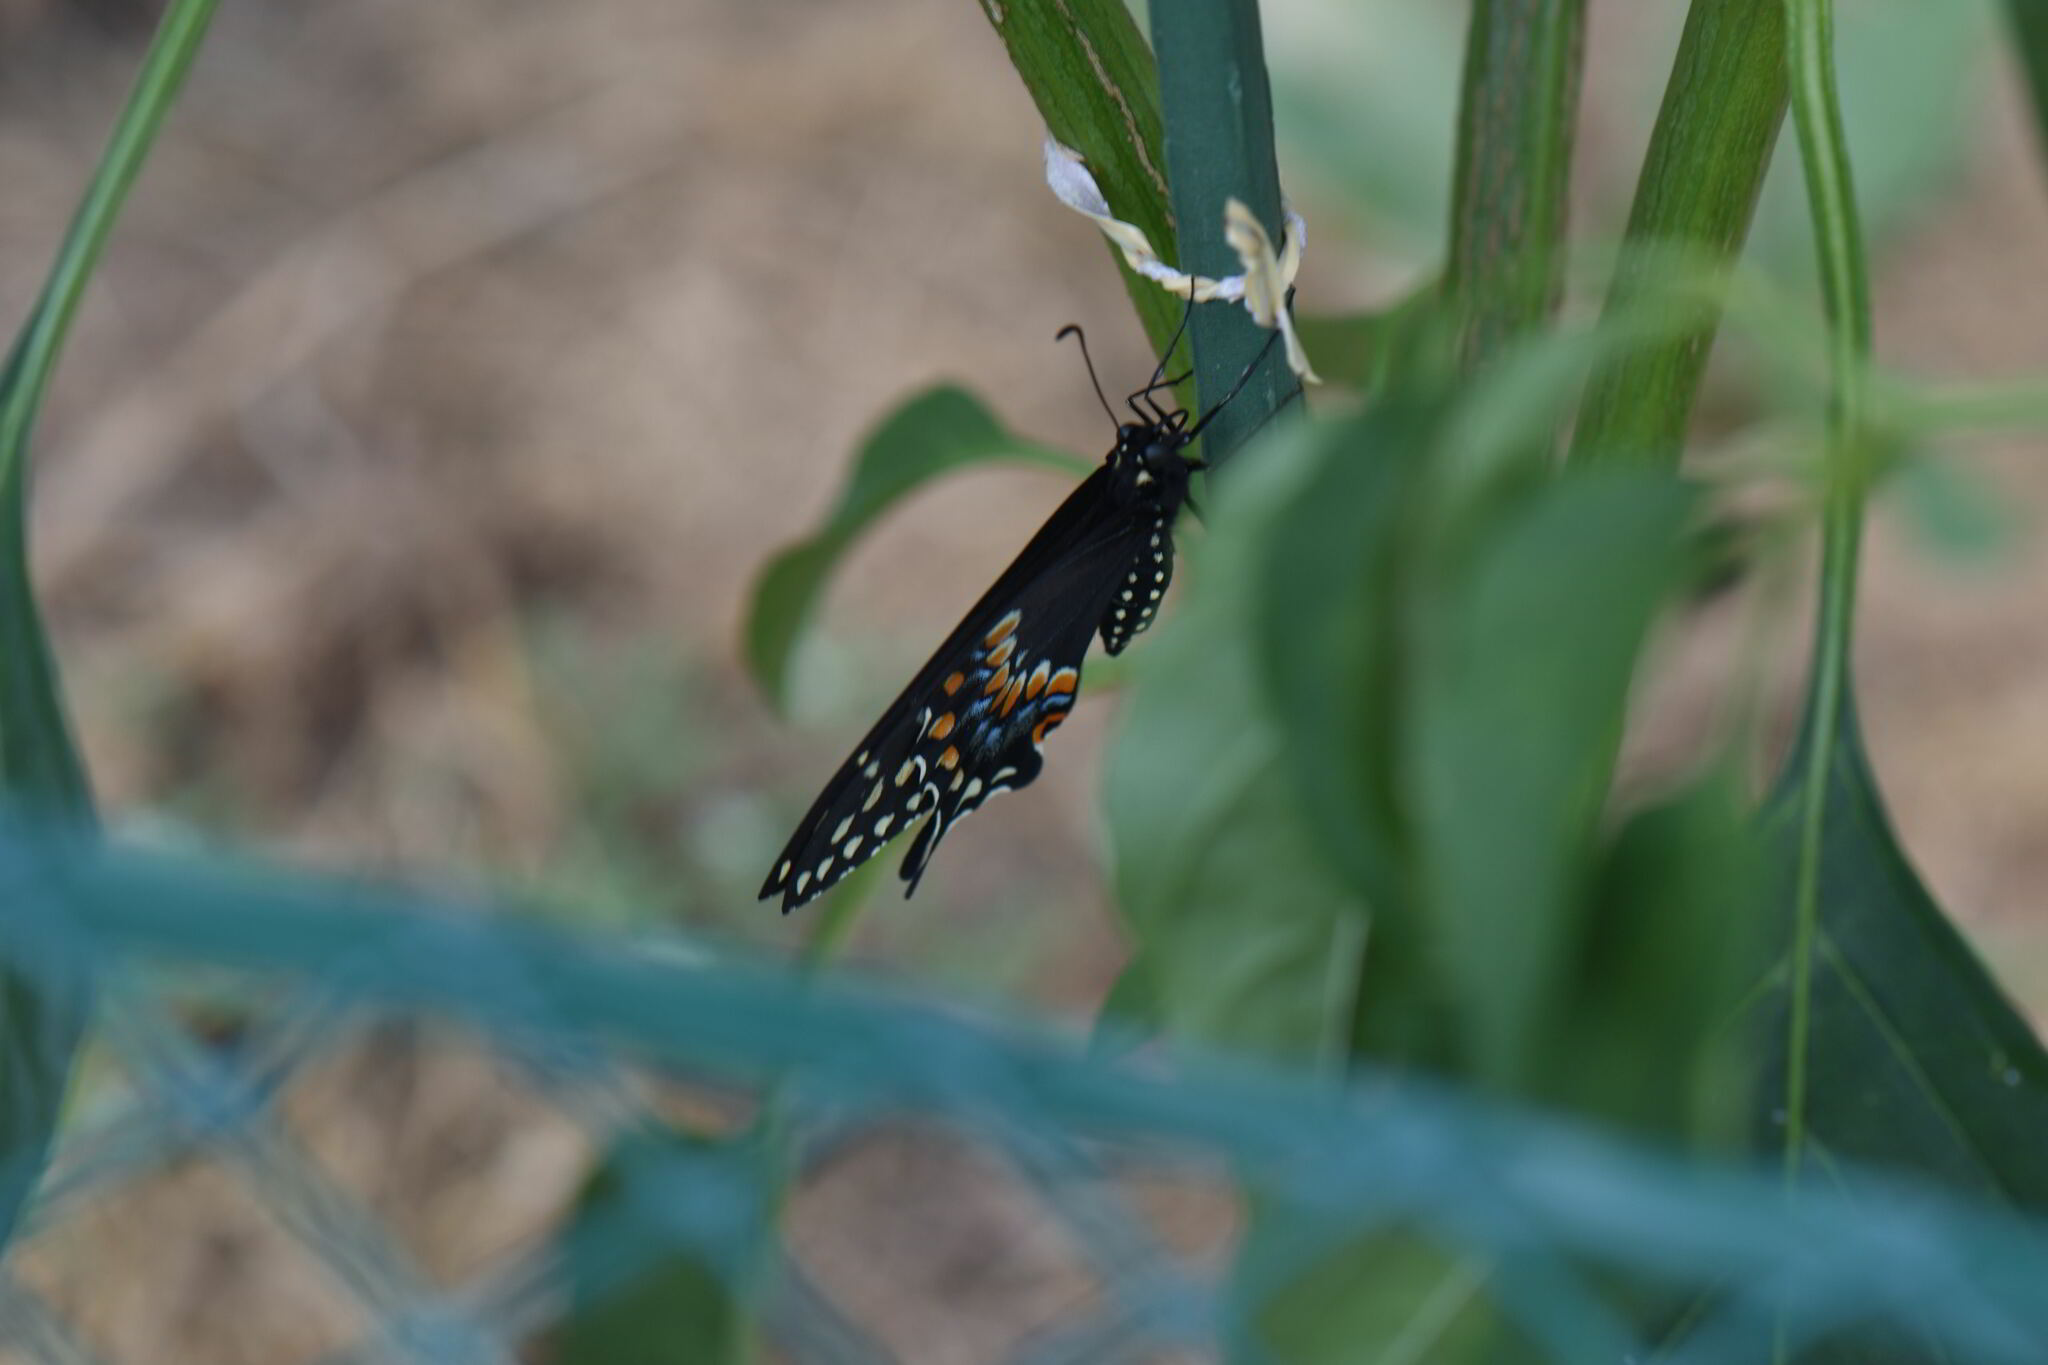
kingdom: Animalia
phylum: Arthropoda
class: Insecta
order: Lepidoptera
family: Papilionidae
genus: Papilio
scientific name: Papilio polyxenes
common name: Black swallowtail
